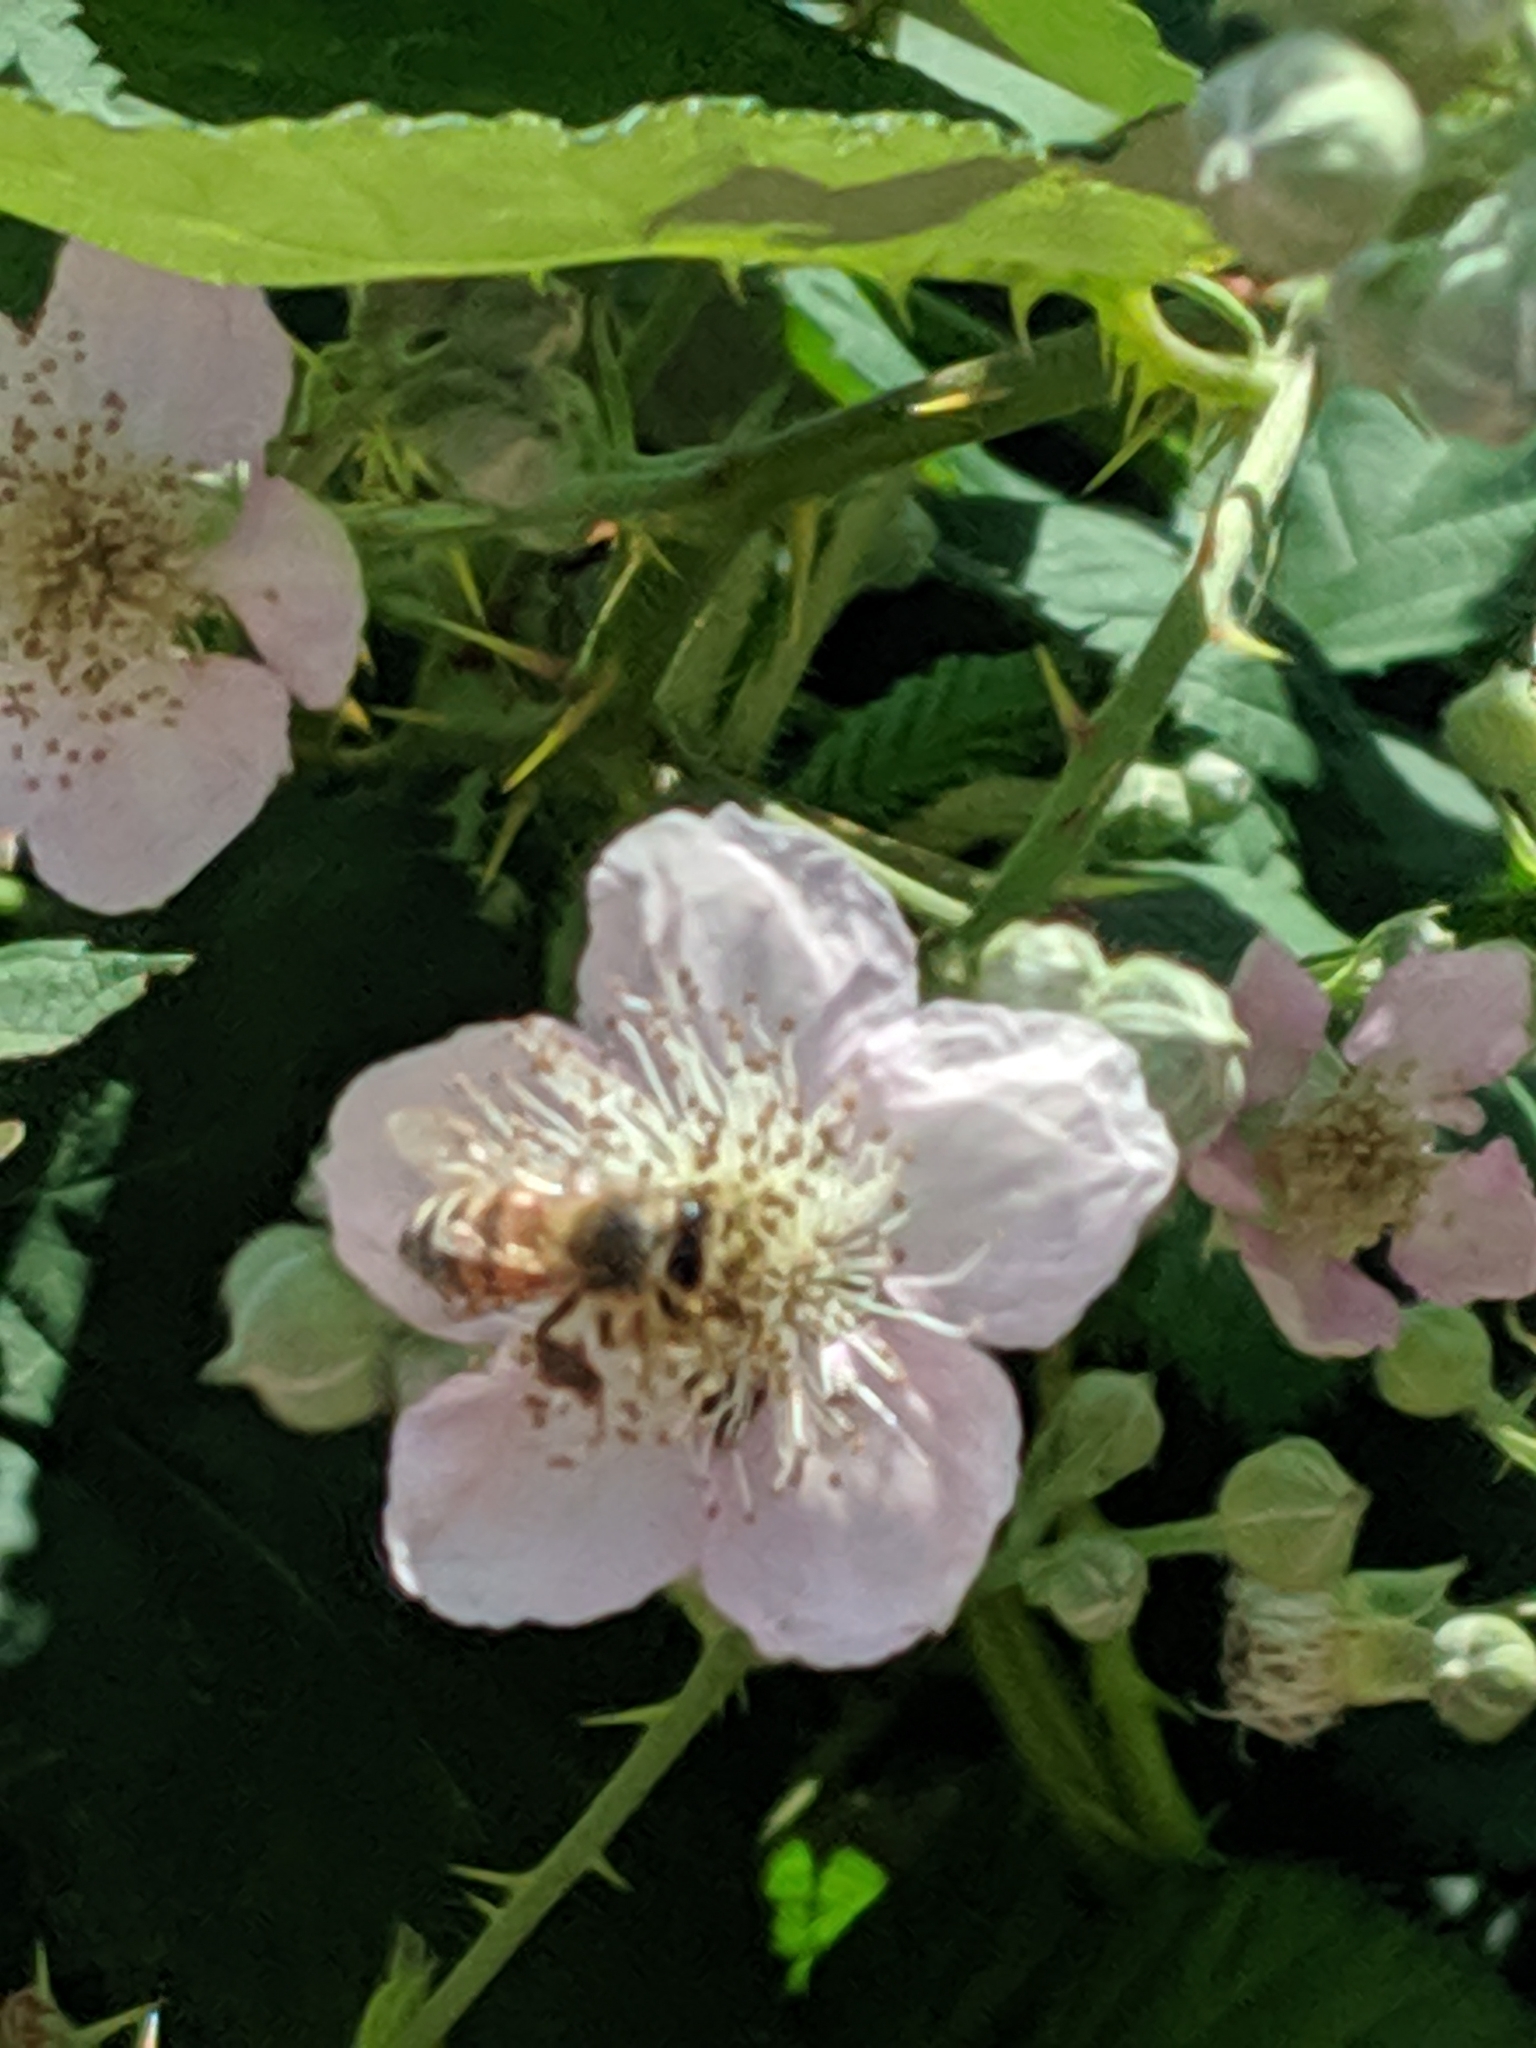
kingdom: Animalia
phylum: Arthropoda
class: Insecta
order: Hymenoptera
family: Apidae
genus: Apis
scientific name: Apis mellifera
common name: Honey bee
